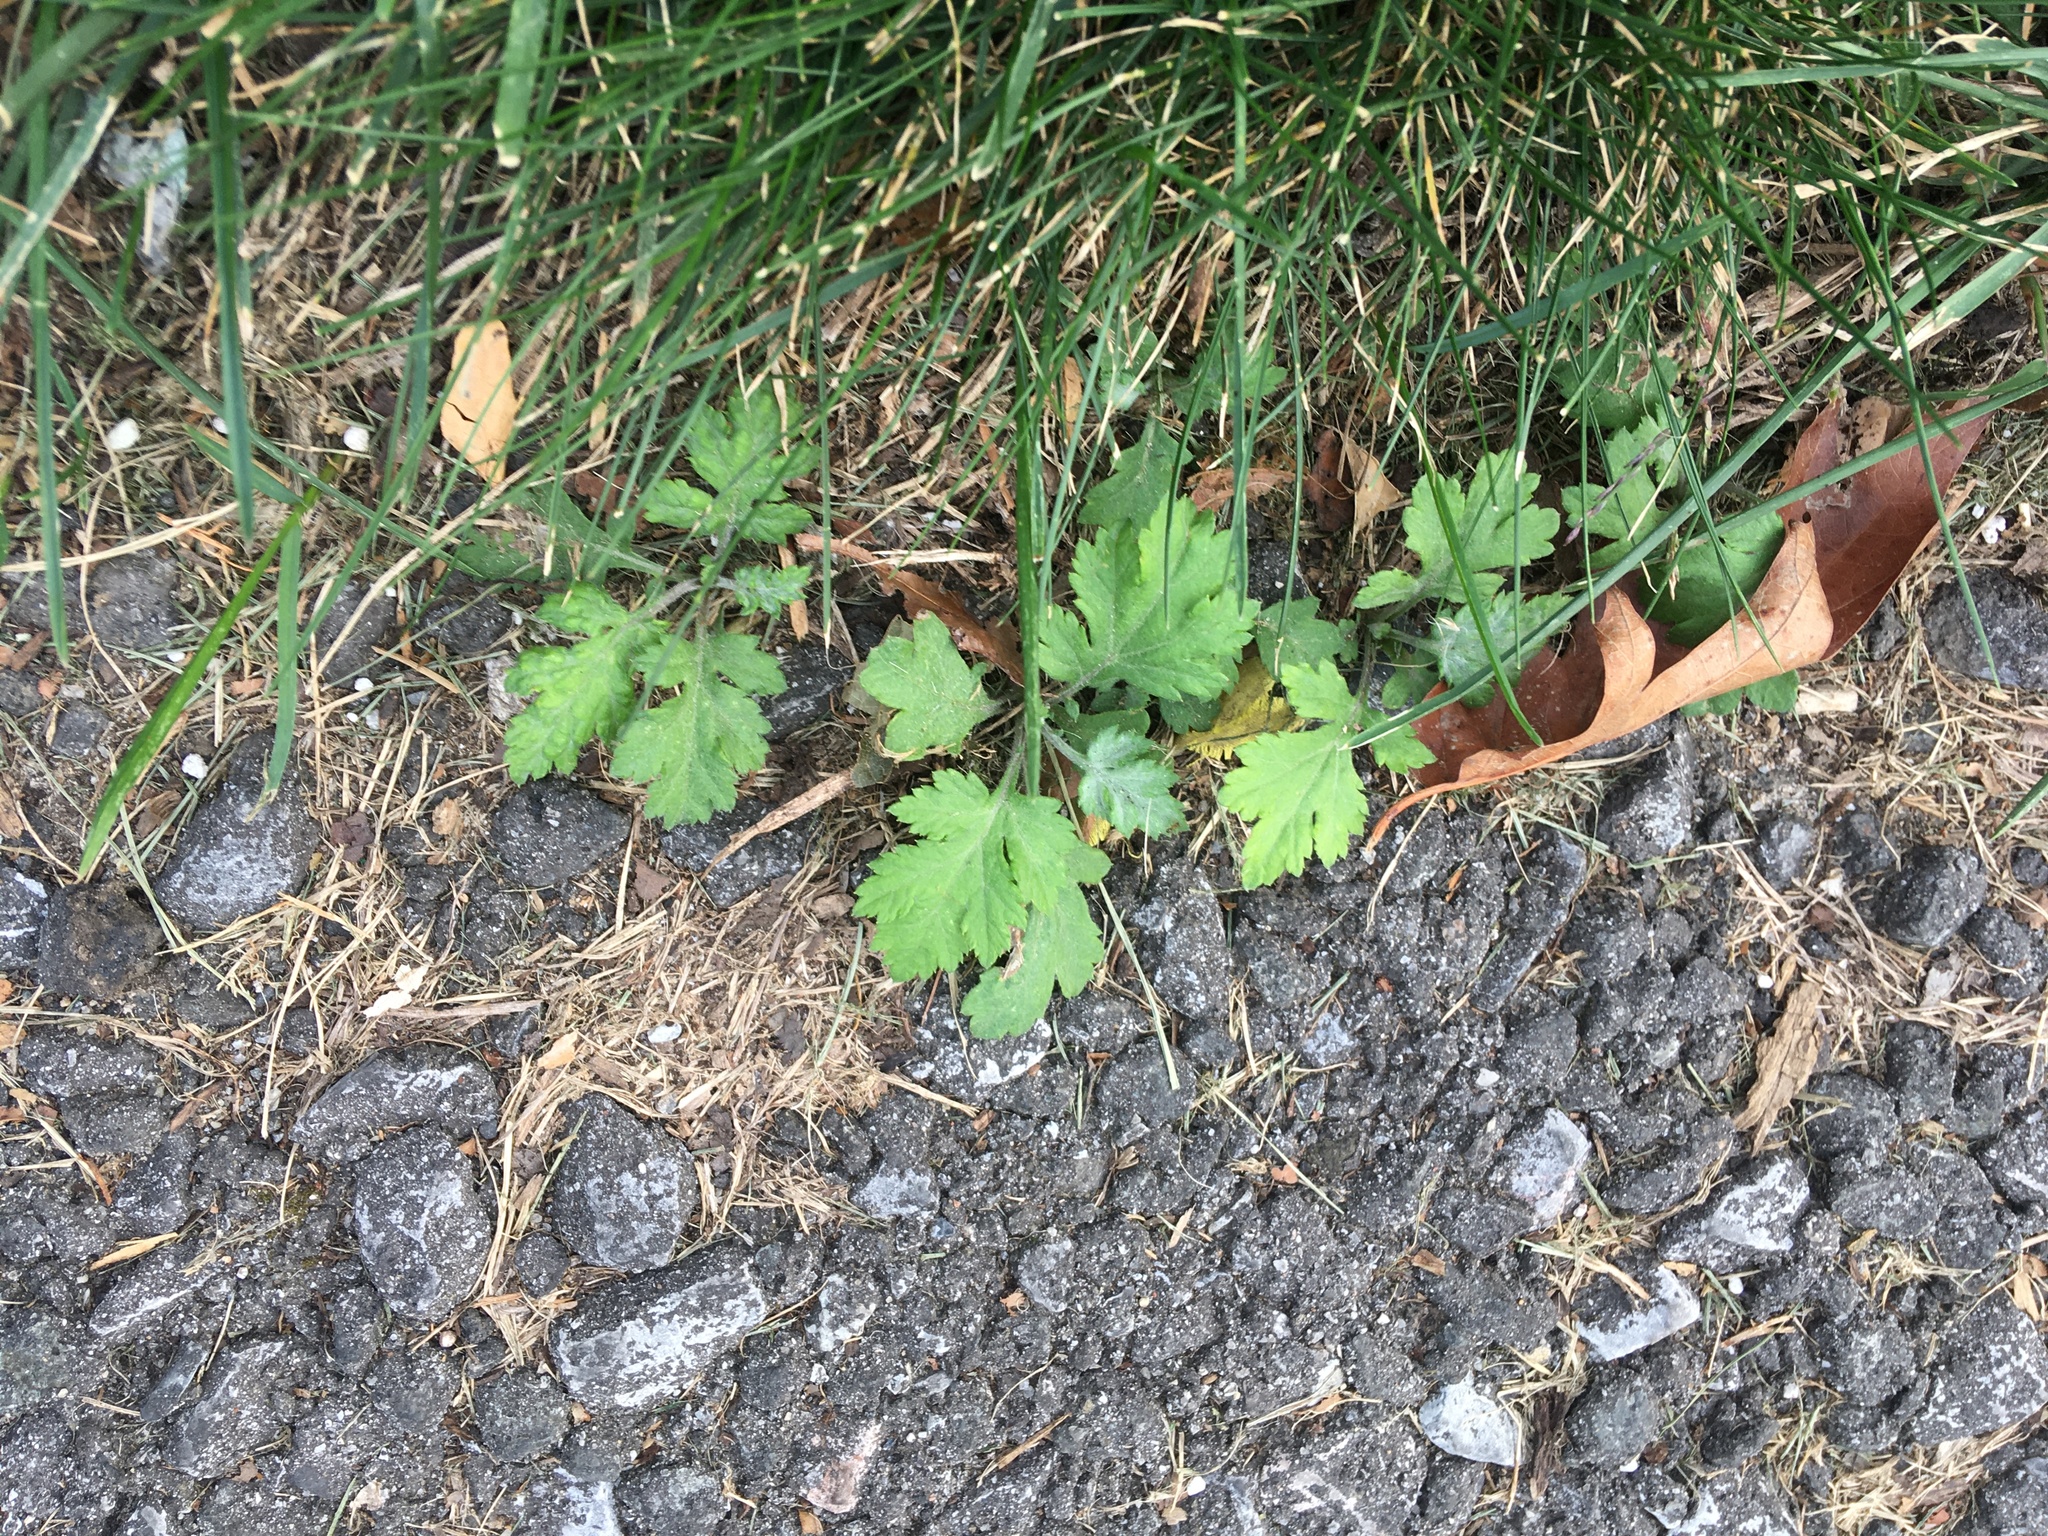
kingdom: Plantae
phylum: Tracheophyta
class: Magnoliopsida
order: Asterales
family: Asteraceae
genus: Artemisia
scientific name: Artemisia vulgaris
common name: Mugwort
